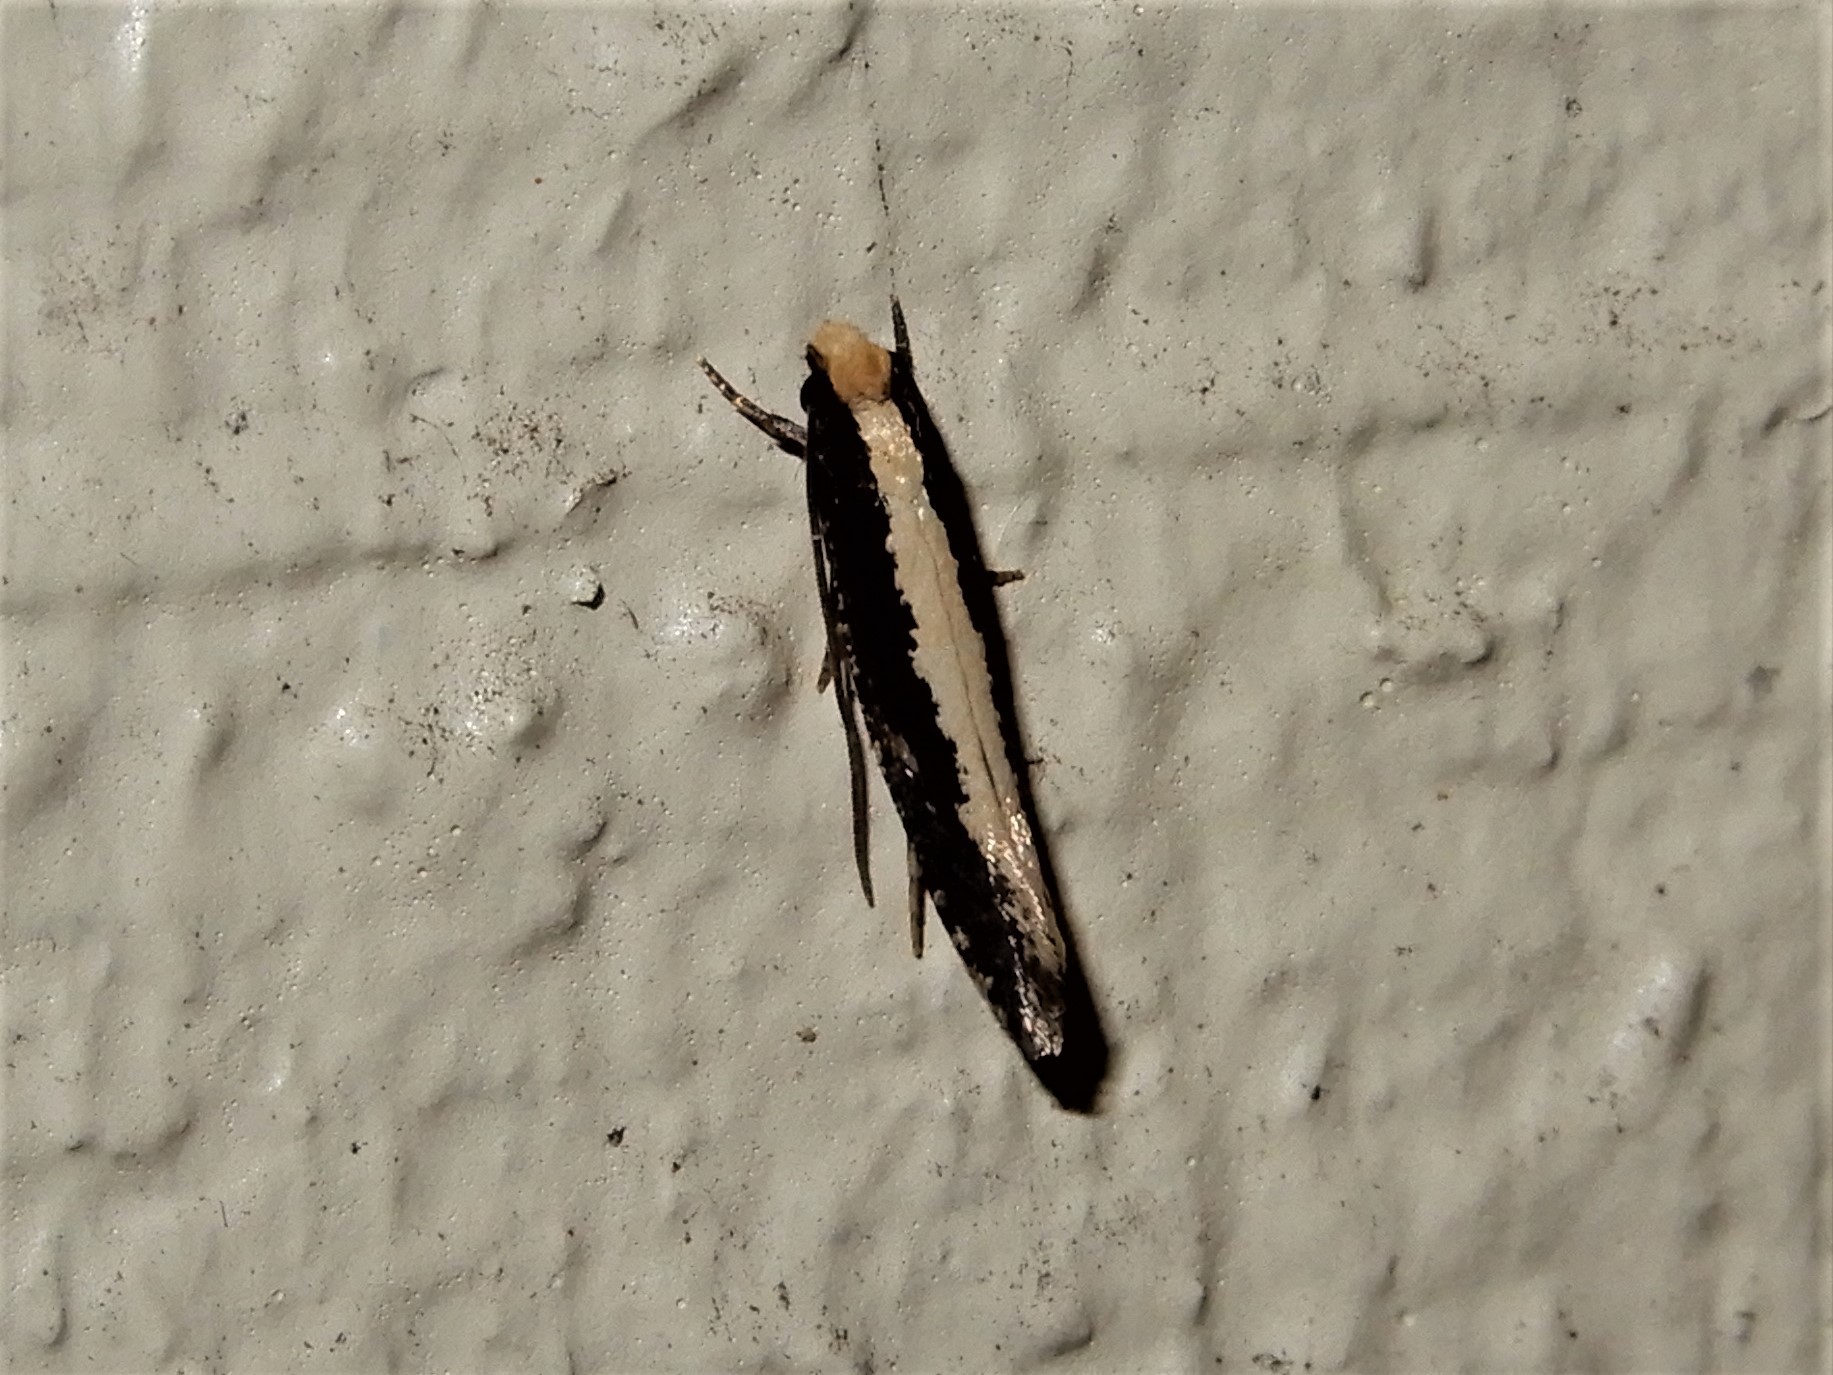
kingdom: Animalia
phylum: Arthropoda
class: Insecta
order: Lepidoptera
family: Tineidae
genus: Monopis
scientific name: Monopis ethelella
